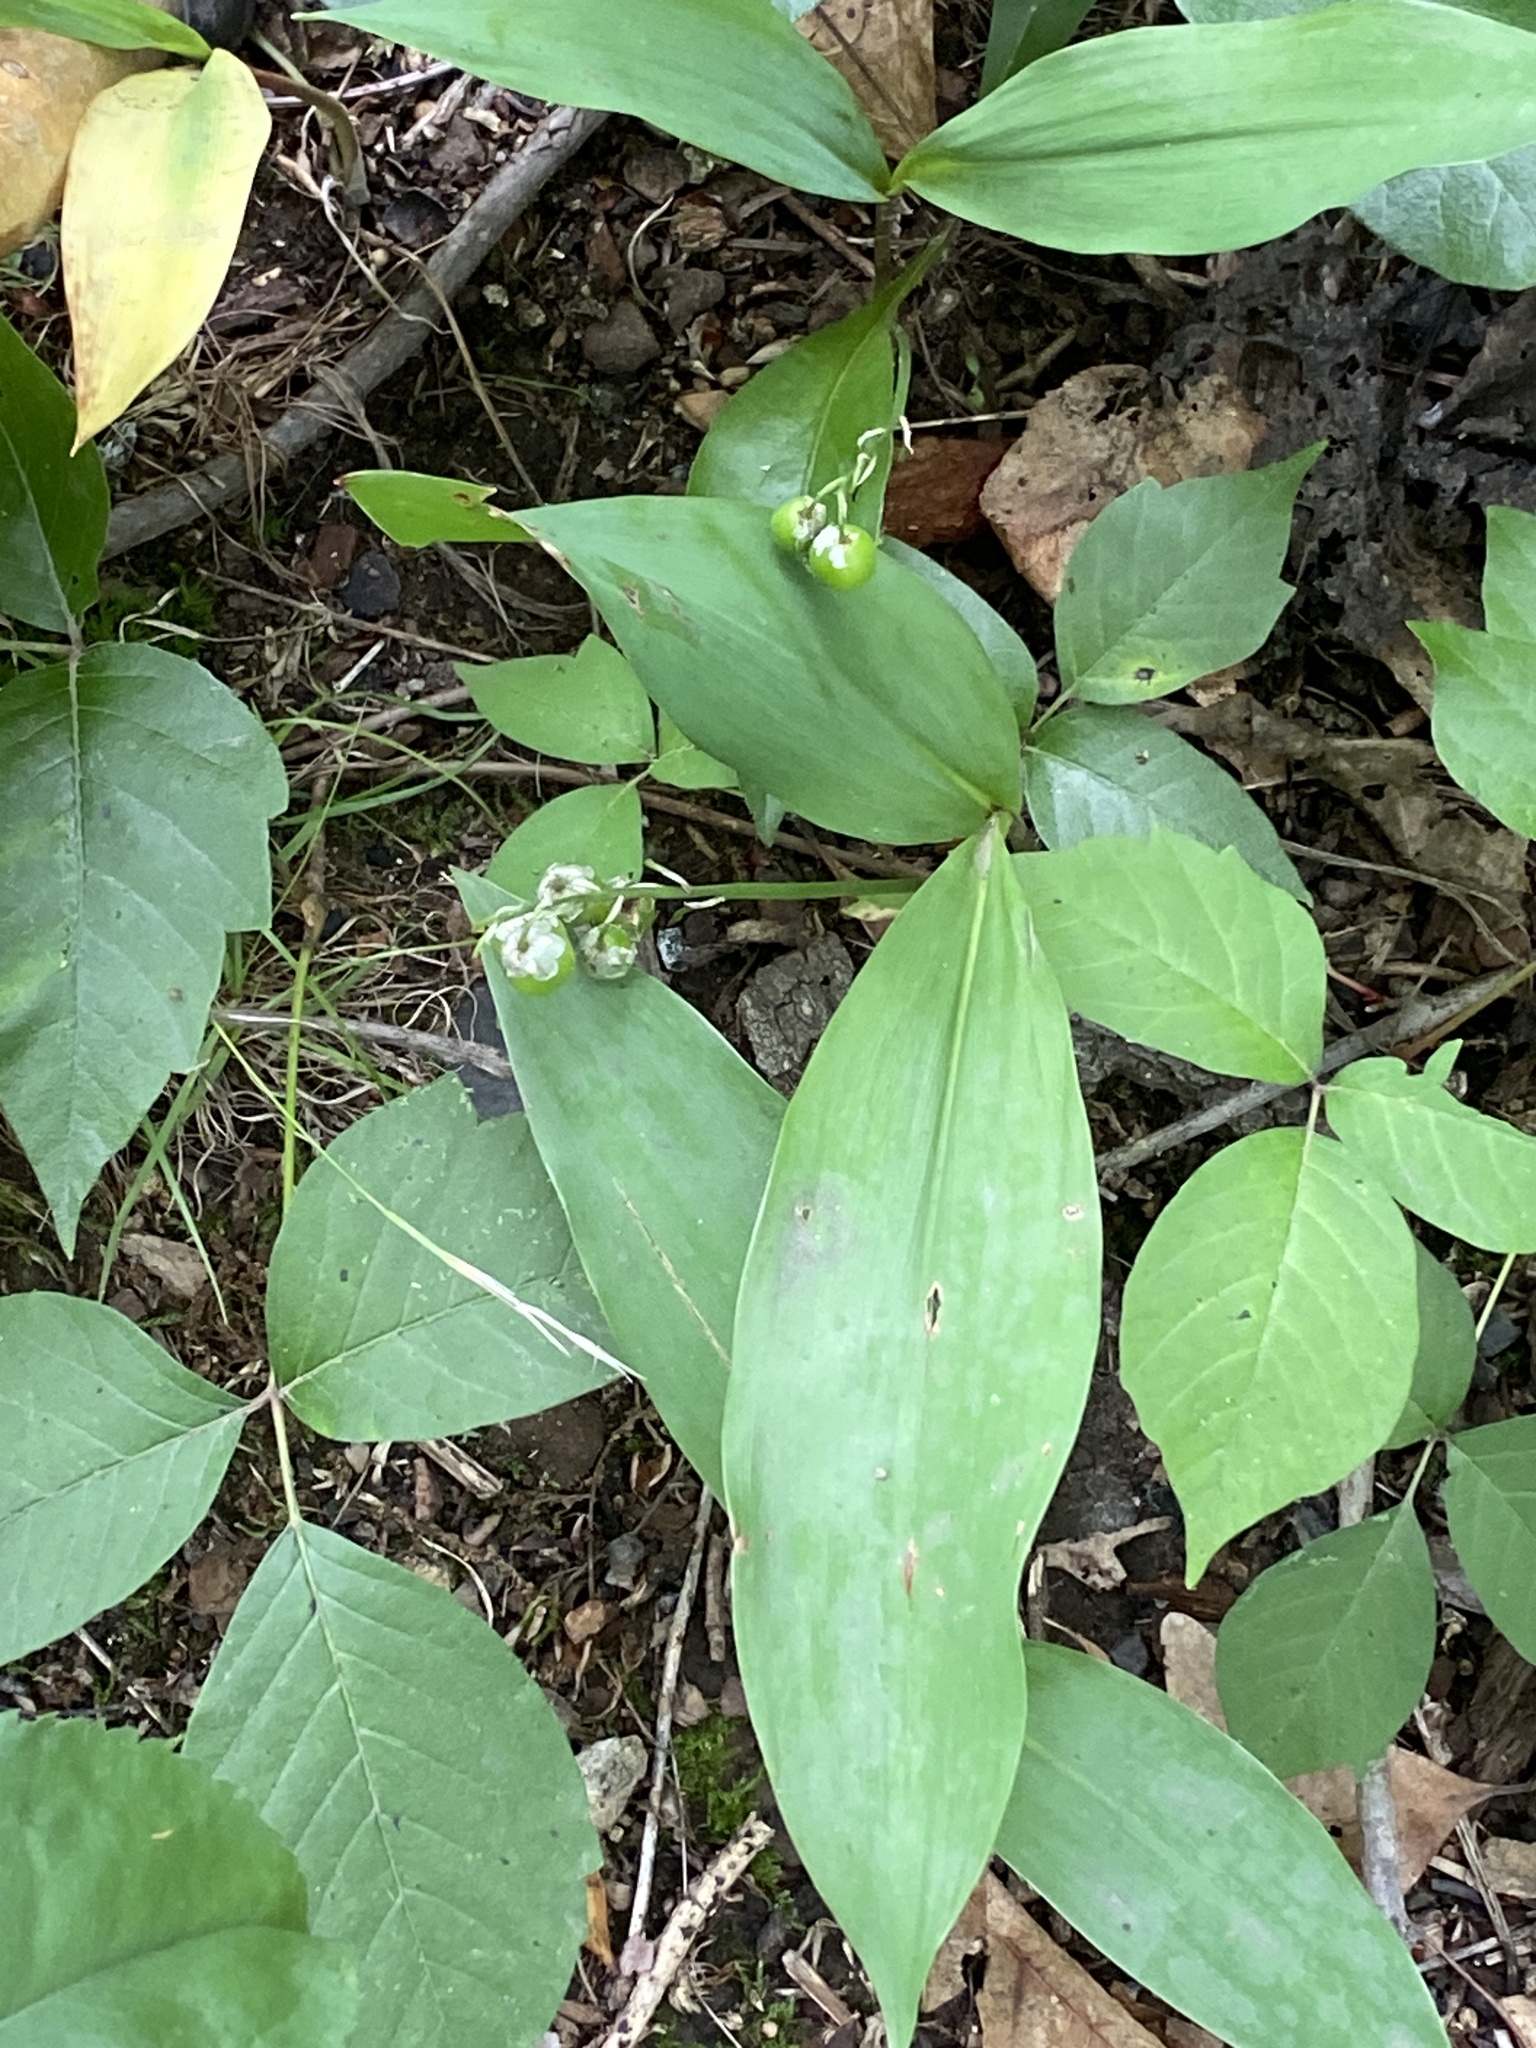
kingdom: Plantae
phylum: Tracheophyta
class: Liliopsida
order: Asparagales
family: Asparagaceae
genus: Convallaria
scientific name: Convallaria majalis
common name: Lily-of-the-valley
